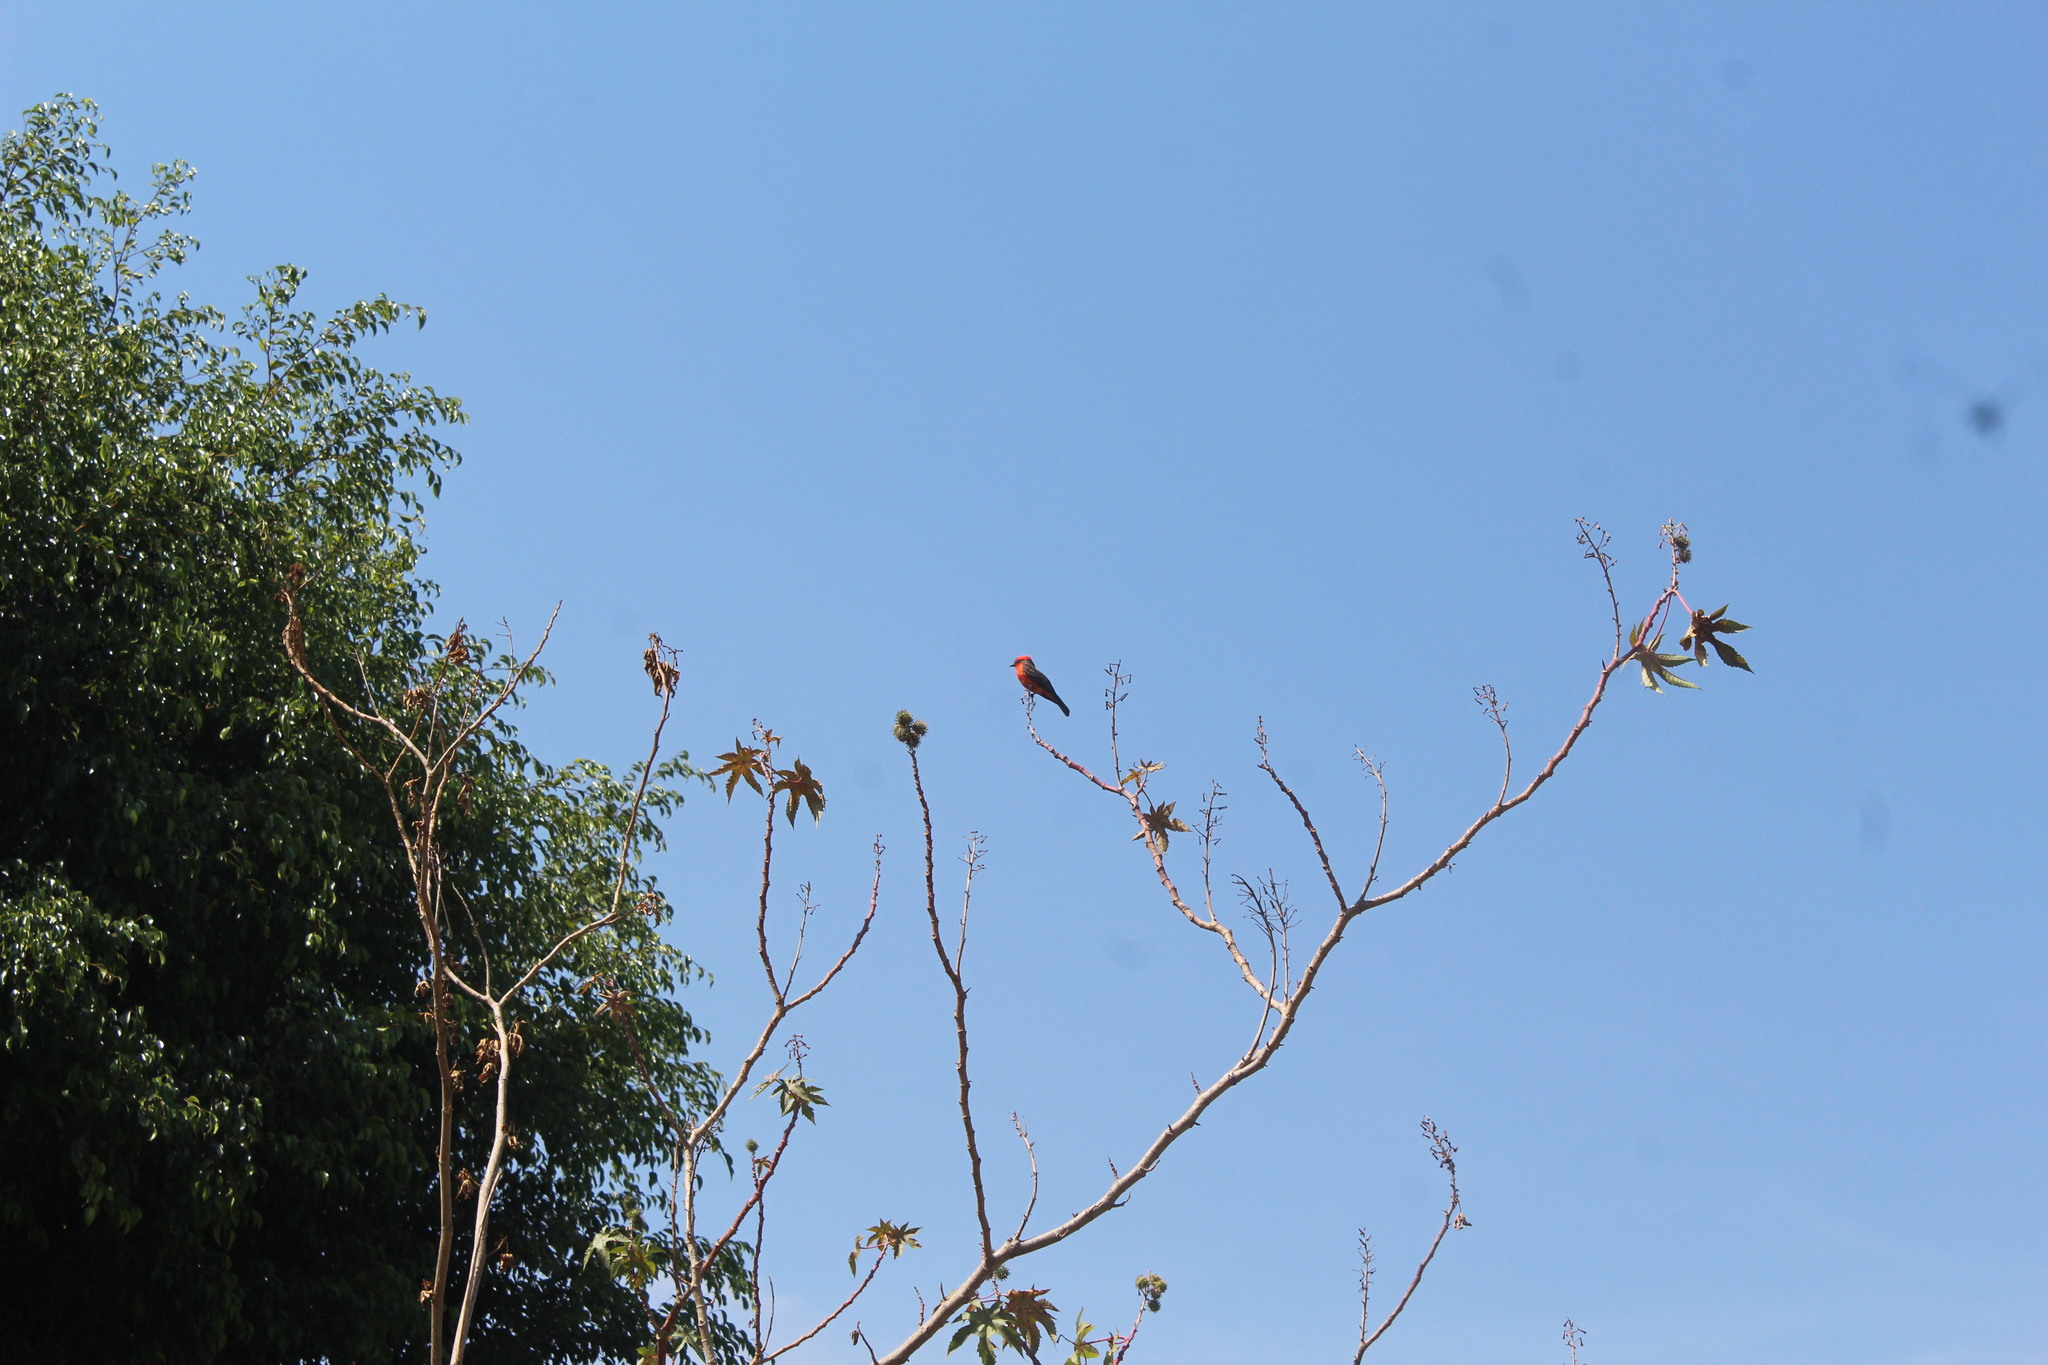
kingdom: Animalia
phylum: Chordata
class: Aves
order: Passeriformes
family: Tyrannidae
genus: Pyrocephalus
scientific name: Pyrocephalus rubinus
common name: Vermilion flycatcher
